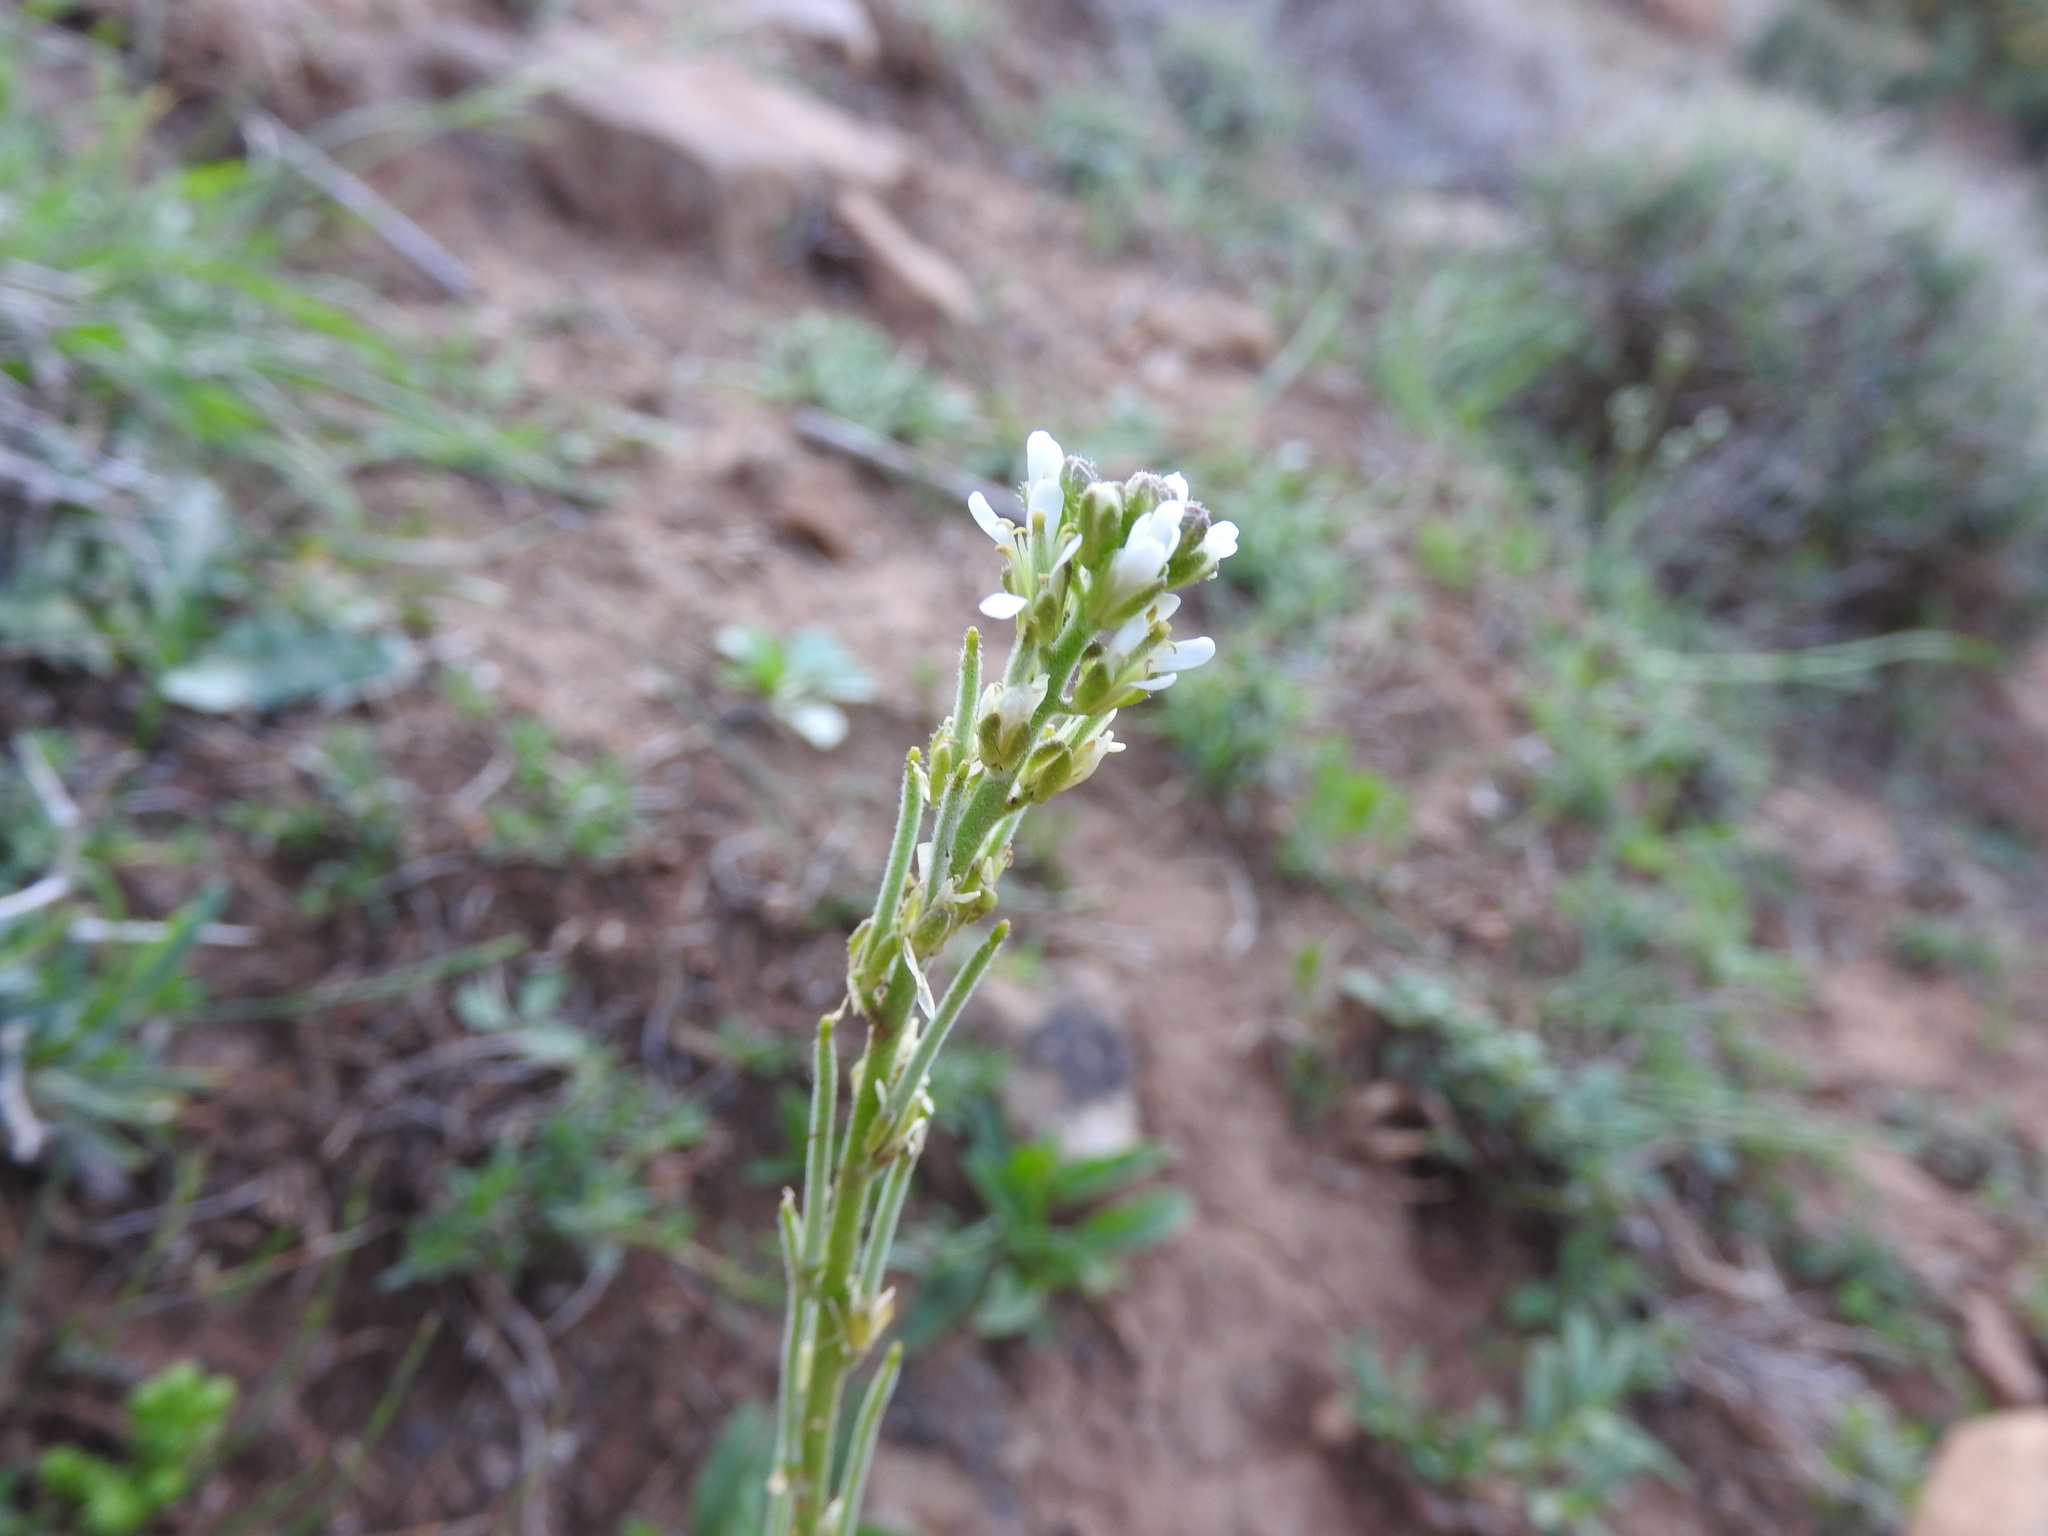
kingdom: Plantae
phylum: Tracheophyta
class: Magnoliopsida
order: Brassicales
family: Brassicaceae
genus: Arabis
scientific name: Arabis pubescens
